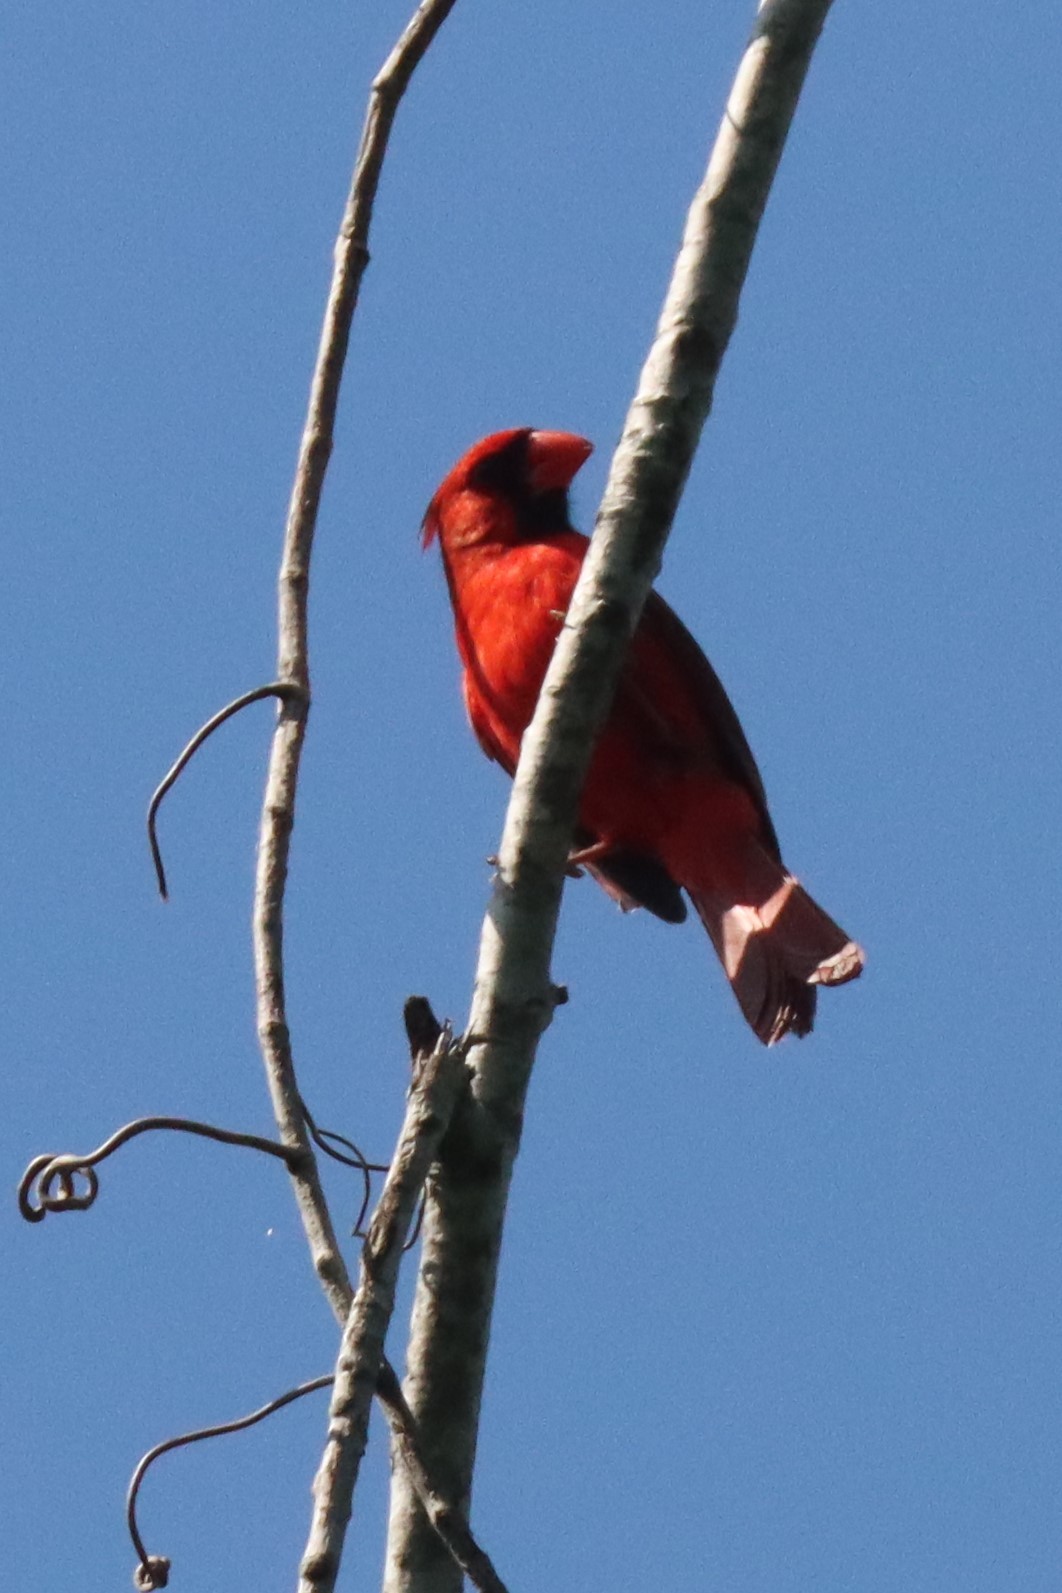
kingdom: Animalia
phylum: Chordata
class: Aves
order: Passeriformes
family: Cardinalidae
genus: Cardinalis
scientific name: Cardinalis cardinalis
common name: Northern cardinal
